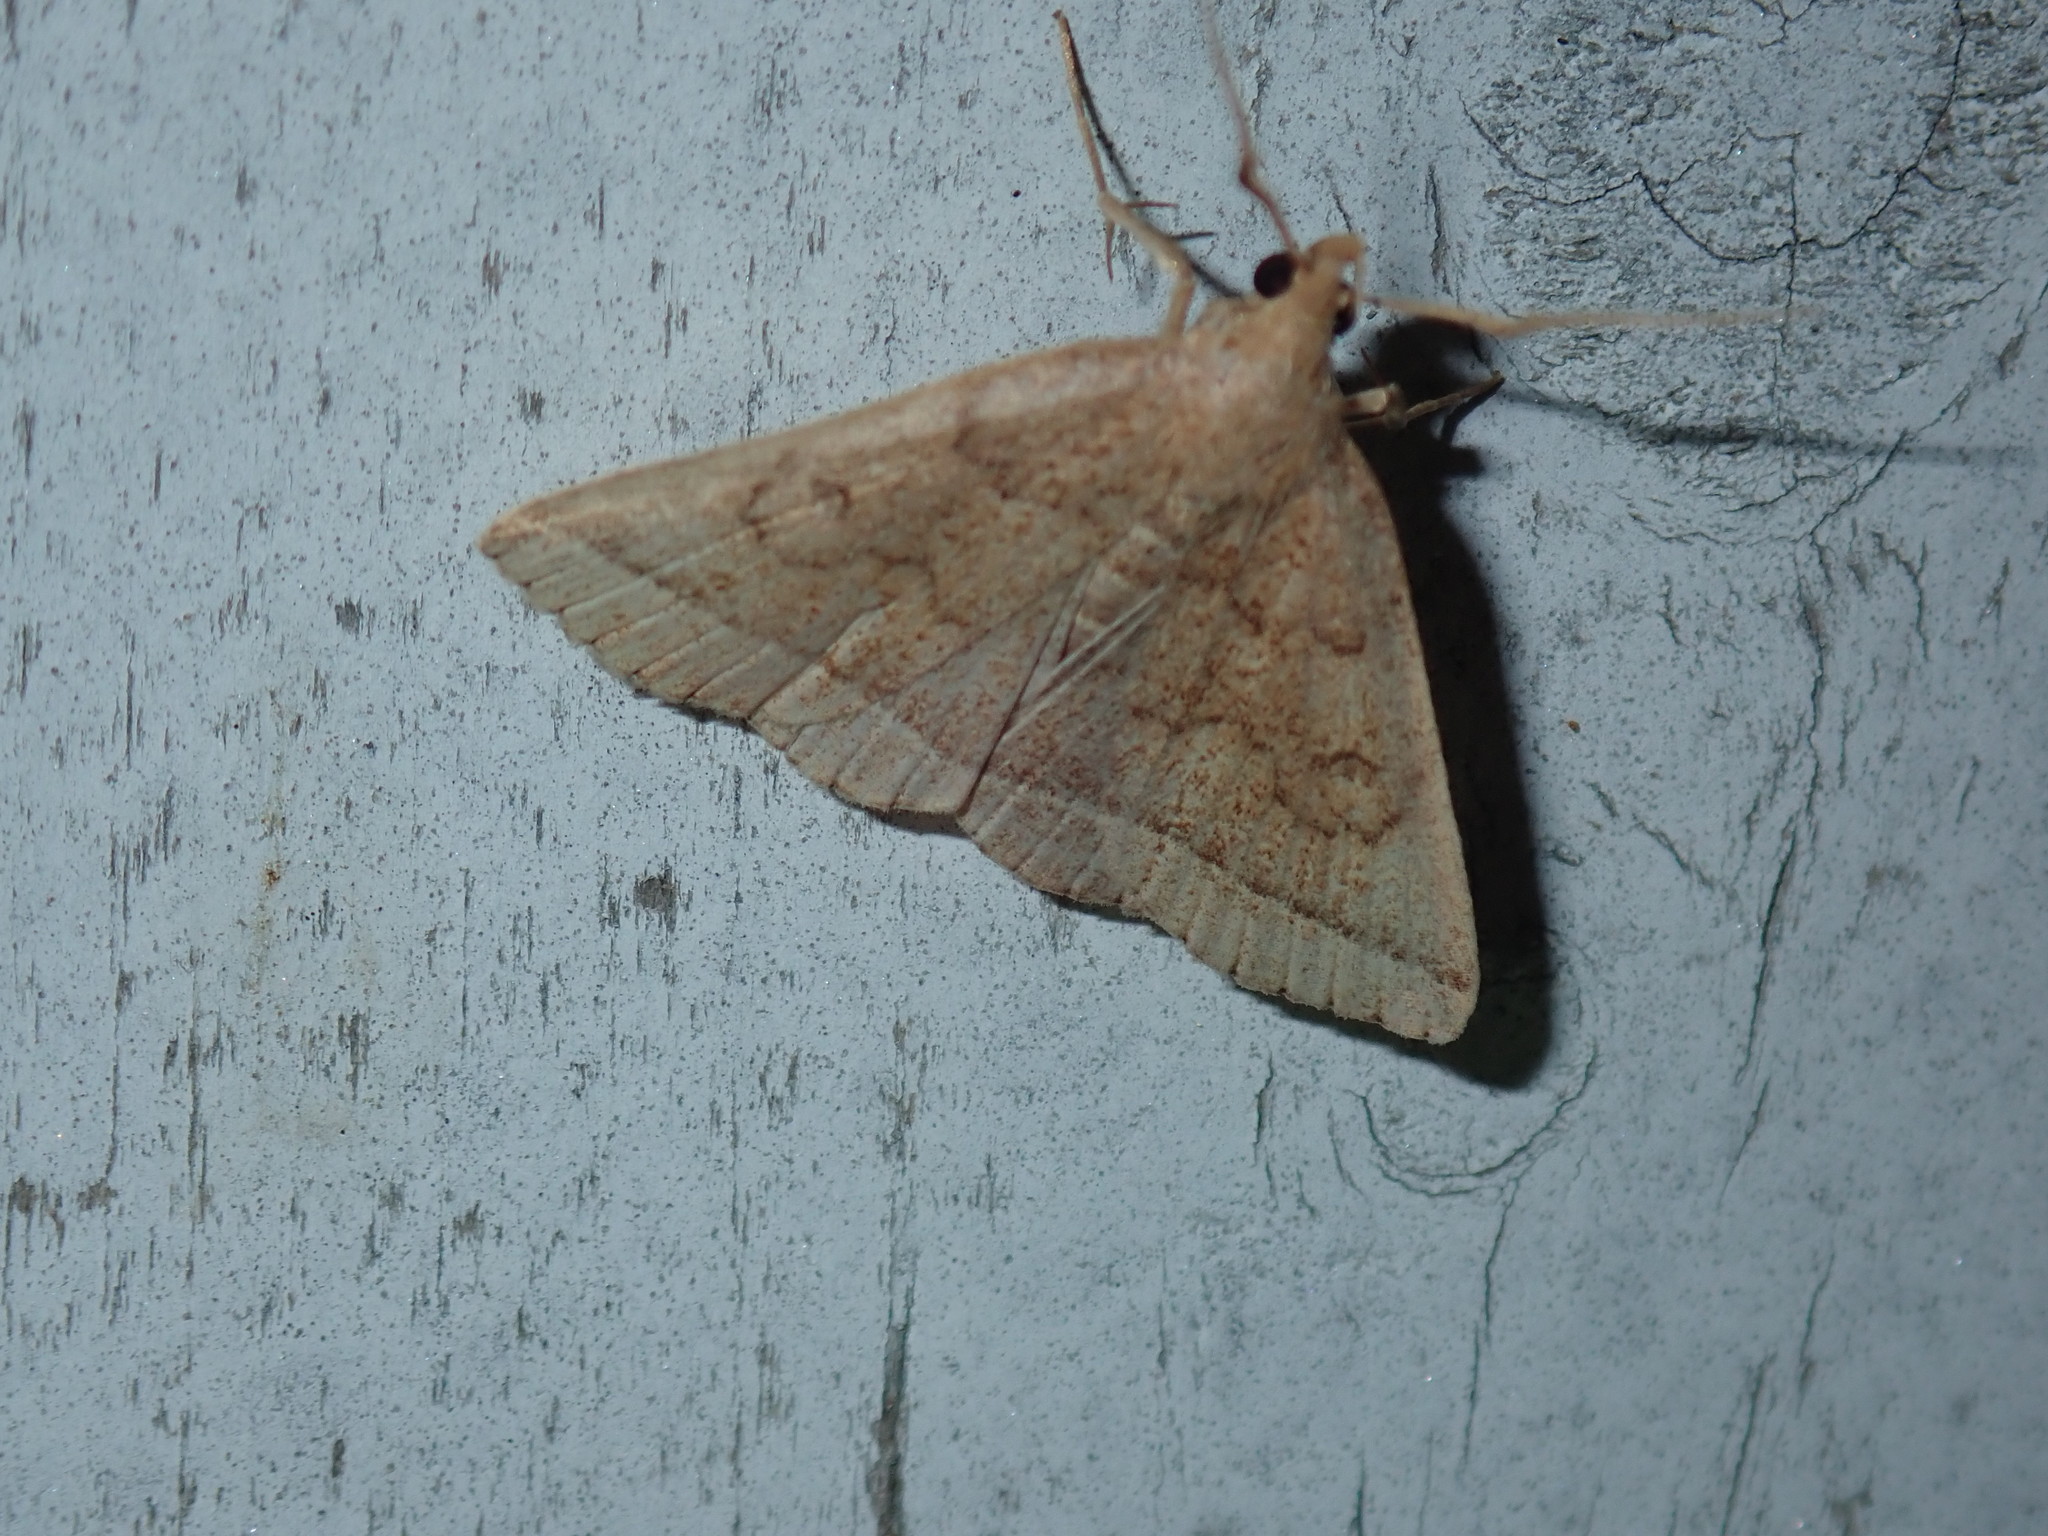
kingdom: Animalia
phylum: Arthropoda
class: Insecta
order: Lepidoptera
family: Erebidae
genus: Zanclognatha
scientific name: Zanclognatha jacchusalis
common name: Yellowish zanclognatha
